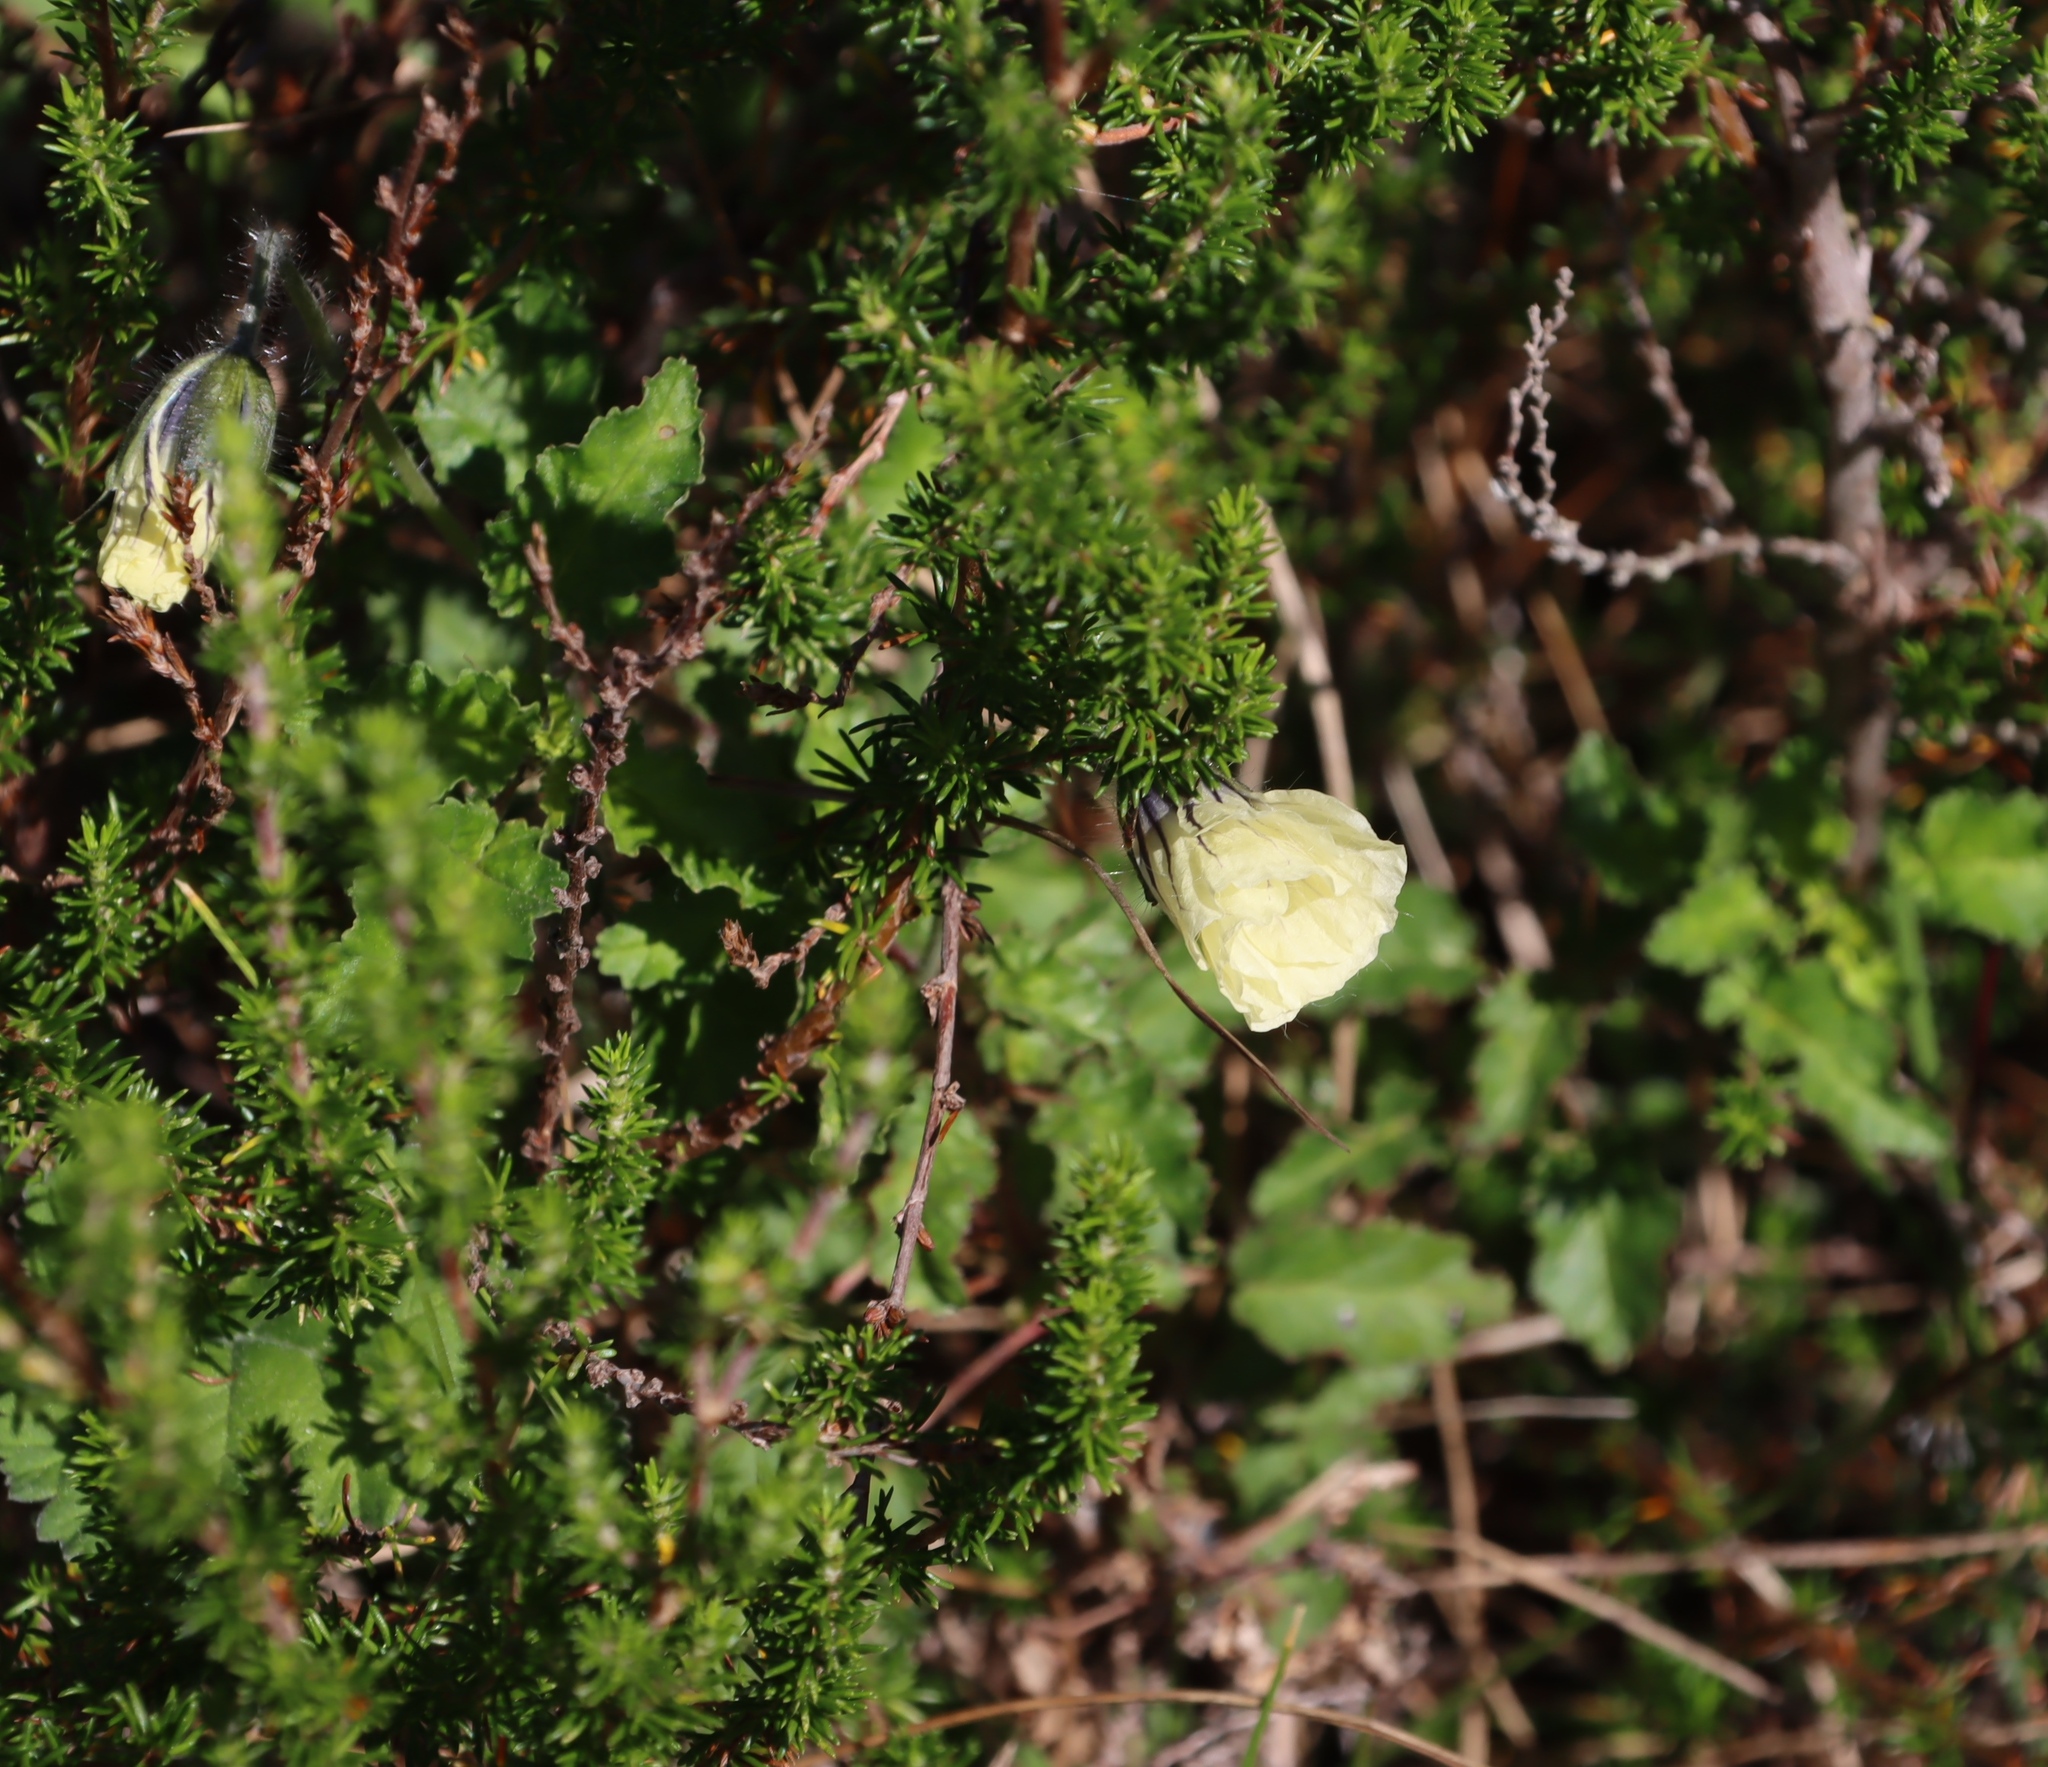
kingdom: Plantae
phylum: Tracheophyta
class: Magnoliopsida
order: Geraniales
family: Geraniaceae
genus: Monsonia
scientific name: Monsonia emarginata
